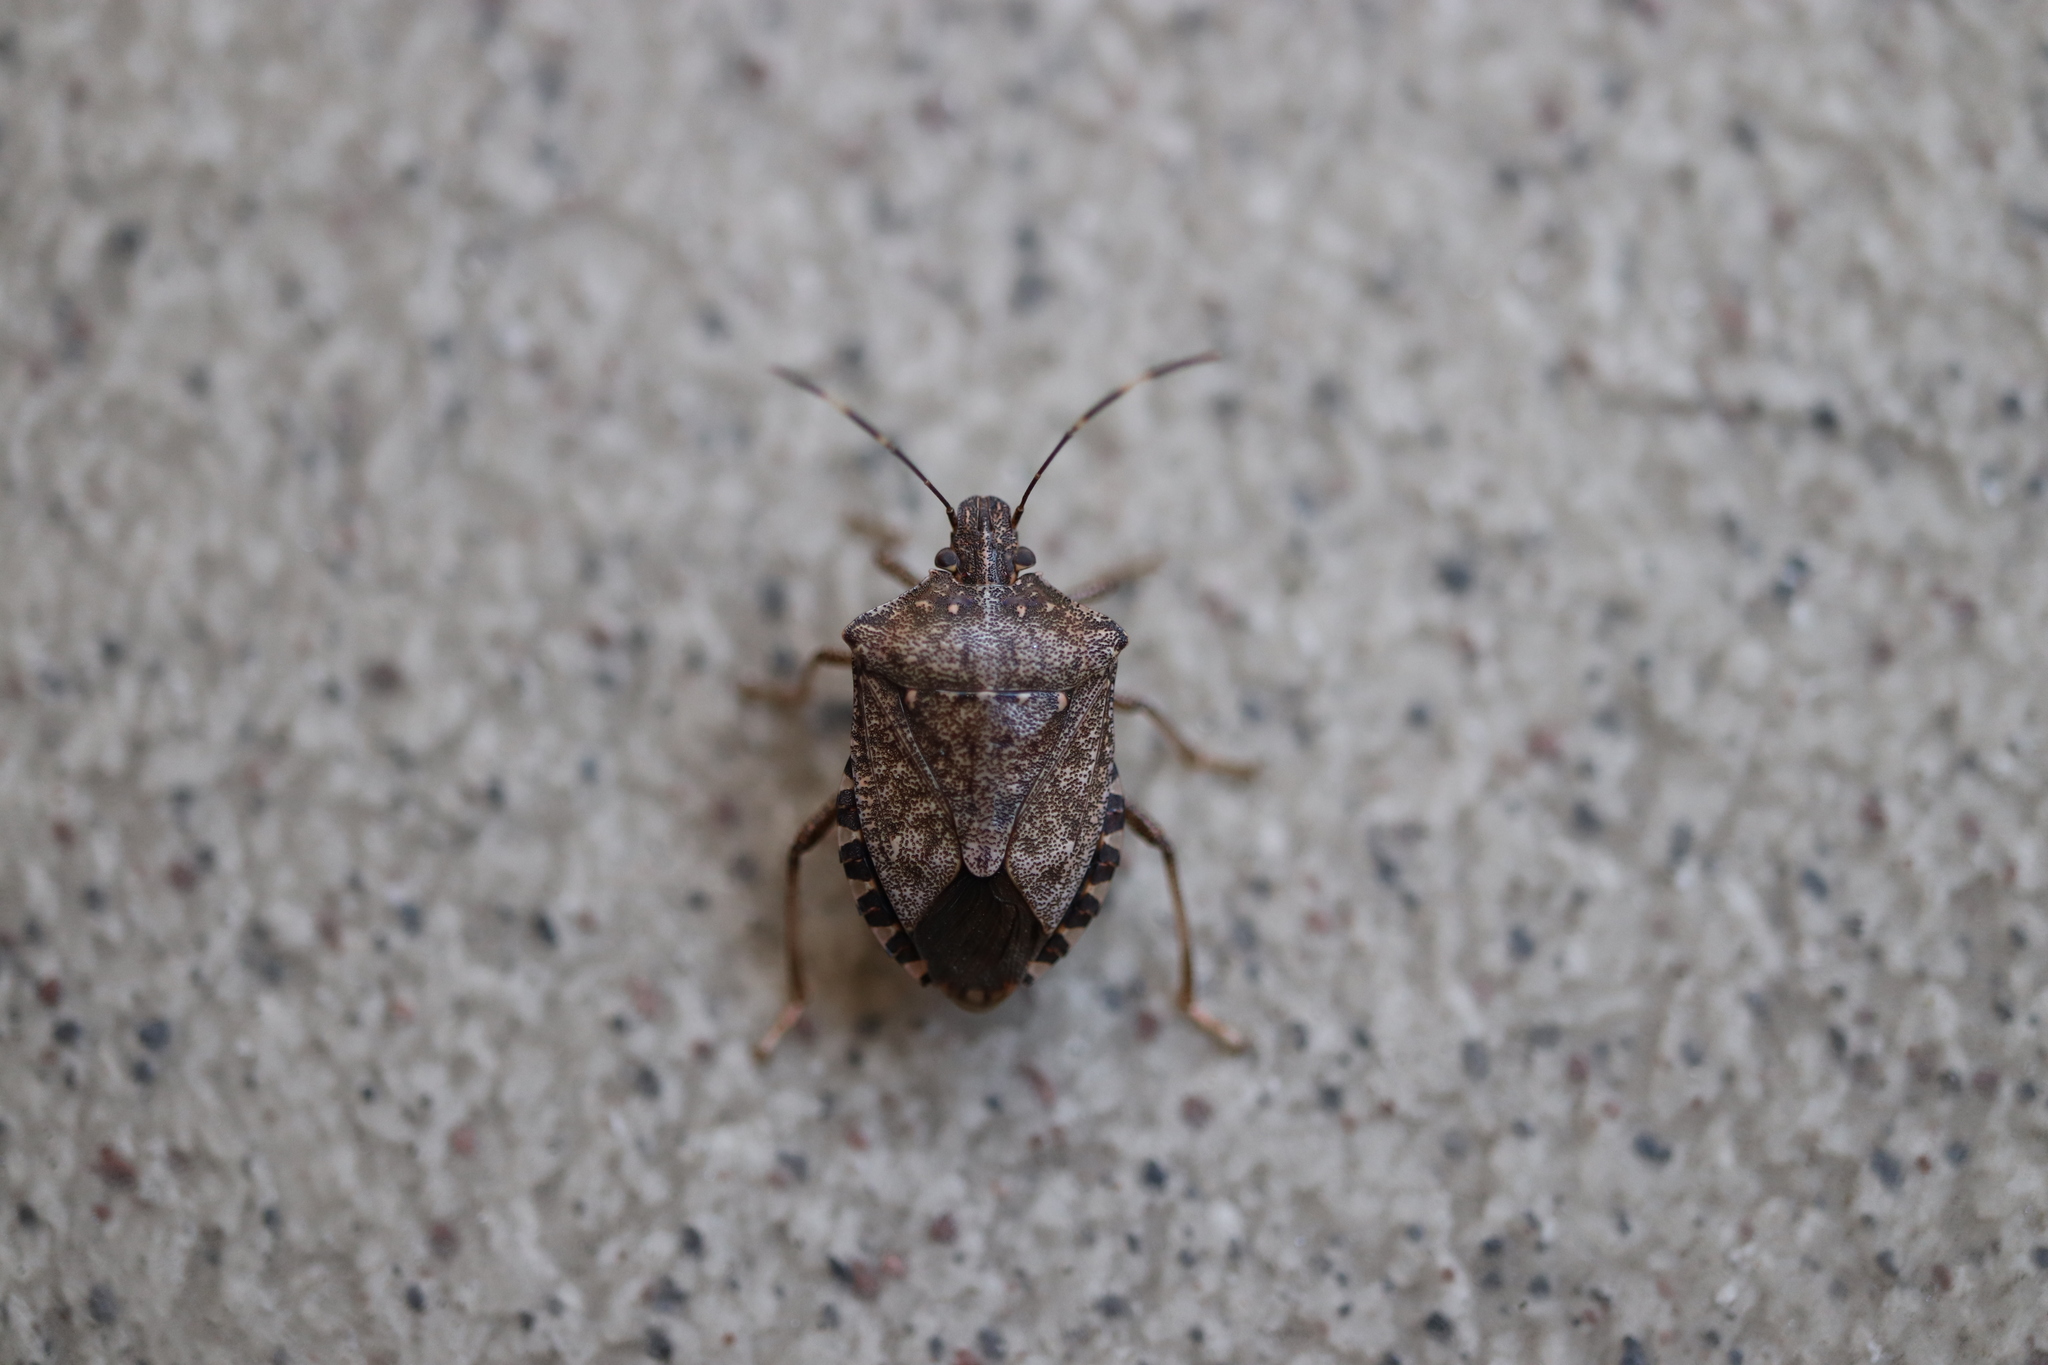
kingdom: Animalia
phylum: Arthropoda
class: Insecta
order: Hemiptera
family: Pentatomidae
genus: Halyomorpha
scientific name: Halyomorpha halys
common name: Brown marmorated stink bug
